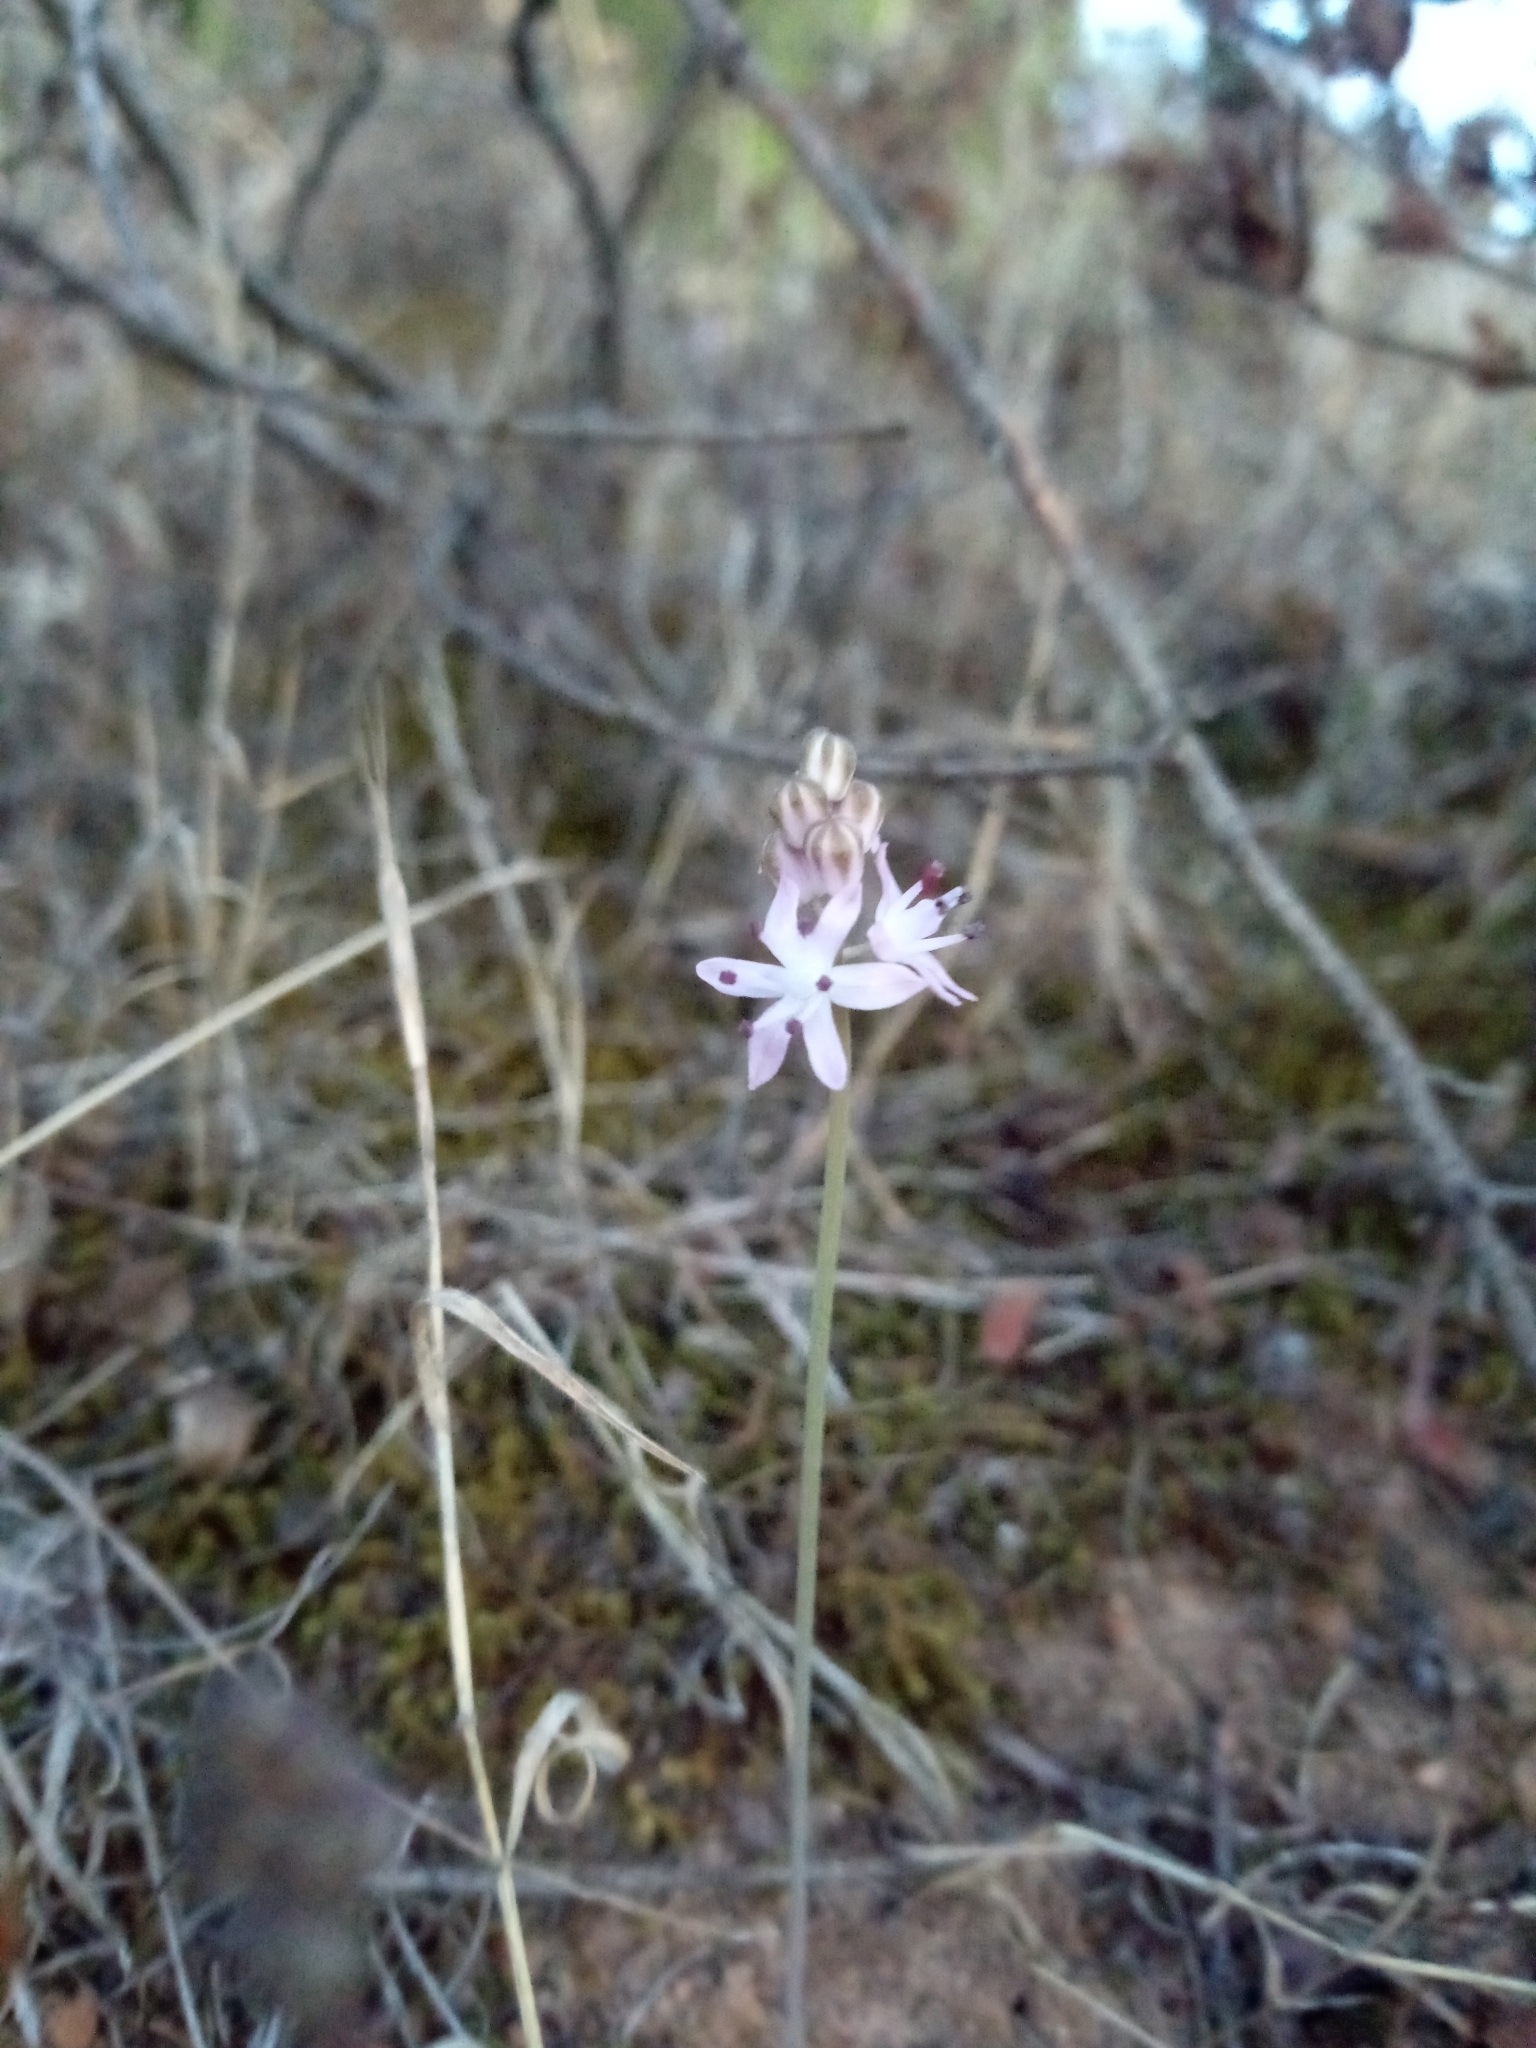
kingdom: Plantae
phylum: Tracheophyta
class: Liliopsida
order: Asparagales
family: Asparagaceae
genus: Prospero
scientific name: Prospero autumnale
